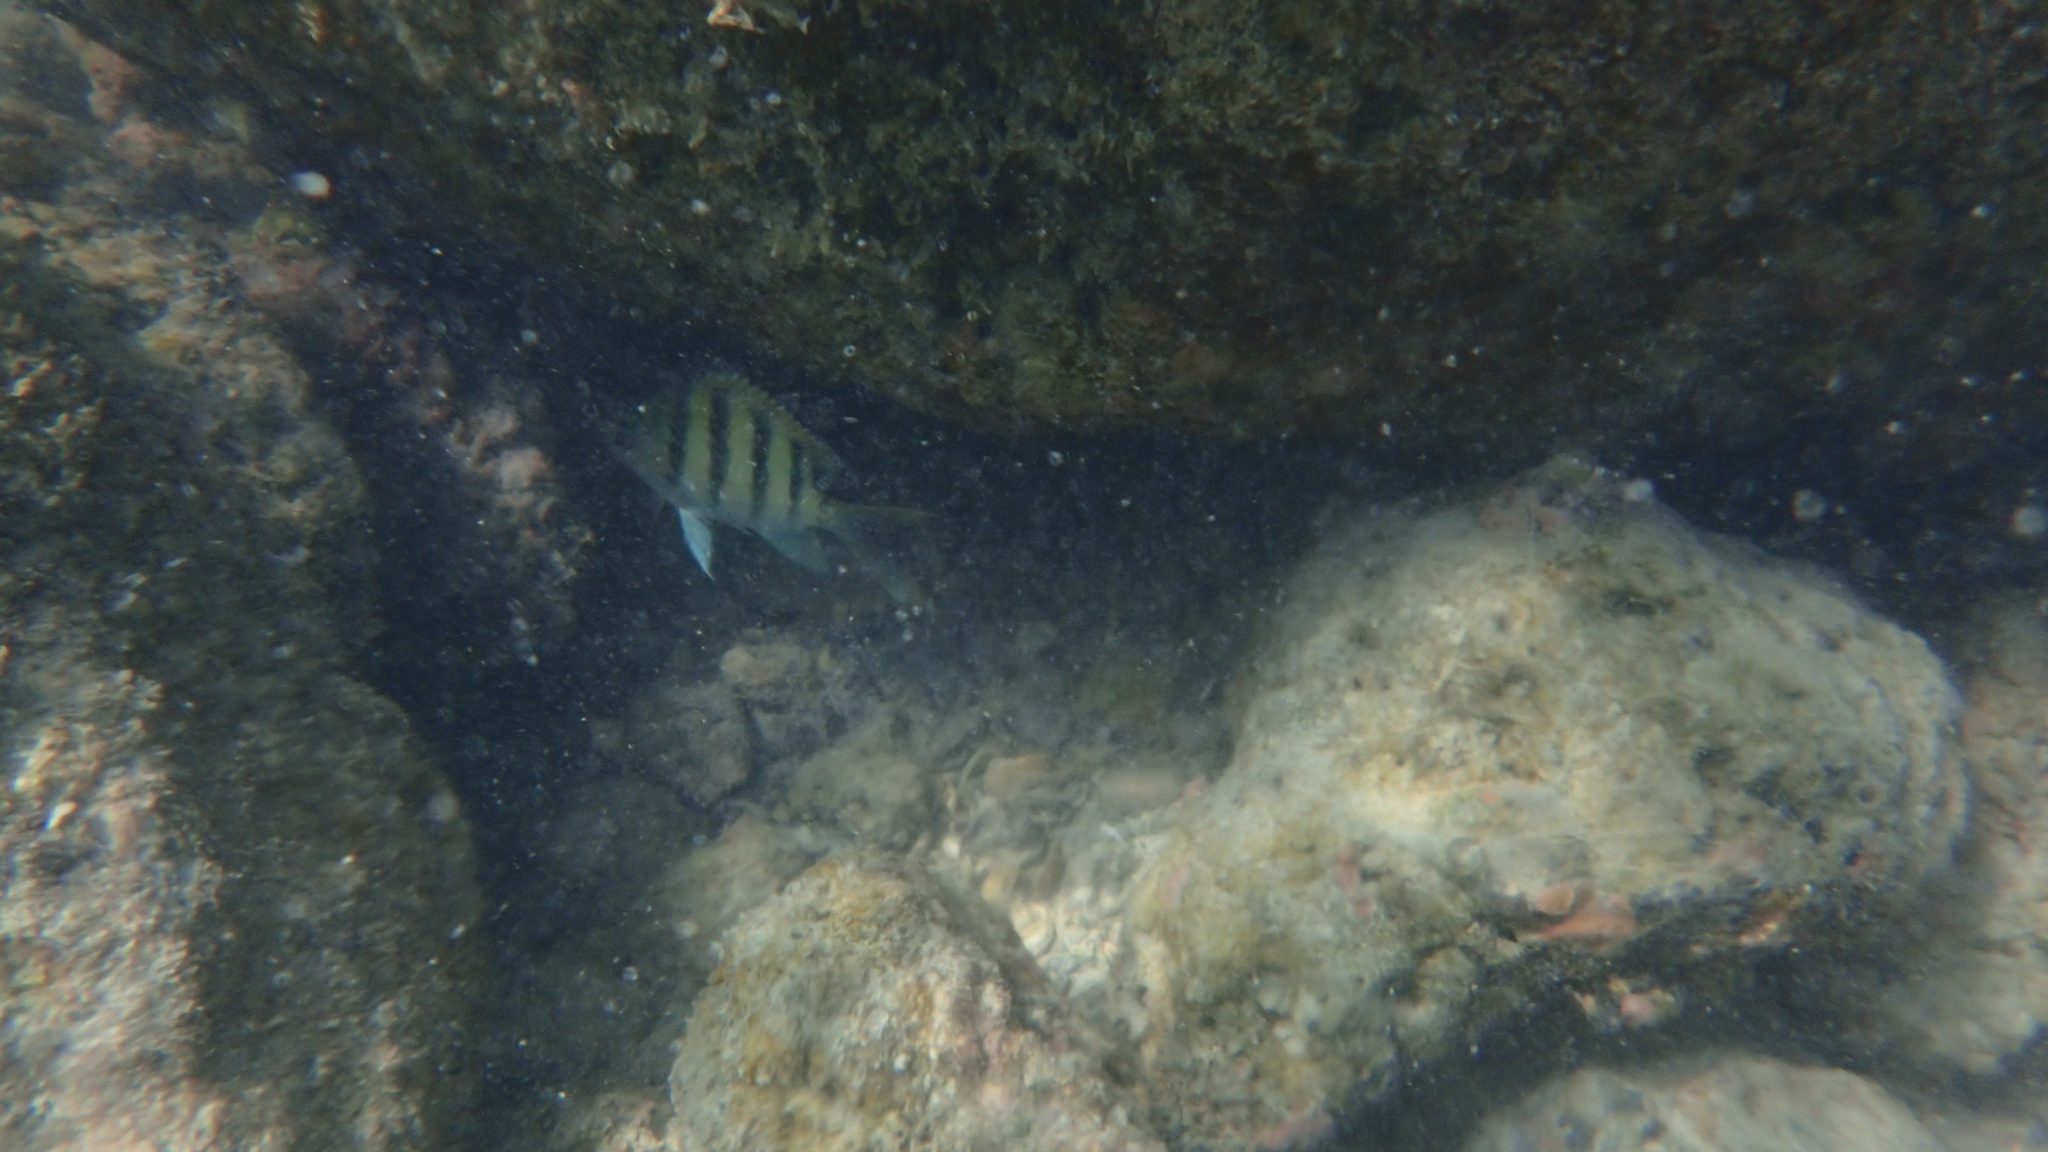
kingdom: Animalia
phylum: Chordata
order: Perciformes
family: Pomacentridae
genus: Abudefduf
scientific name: Abudefduf
